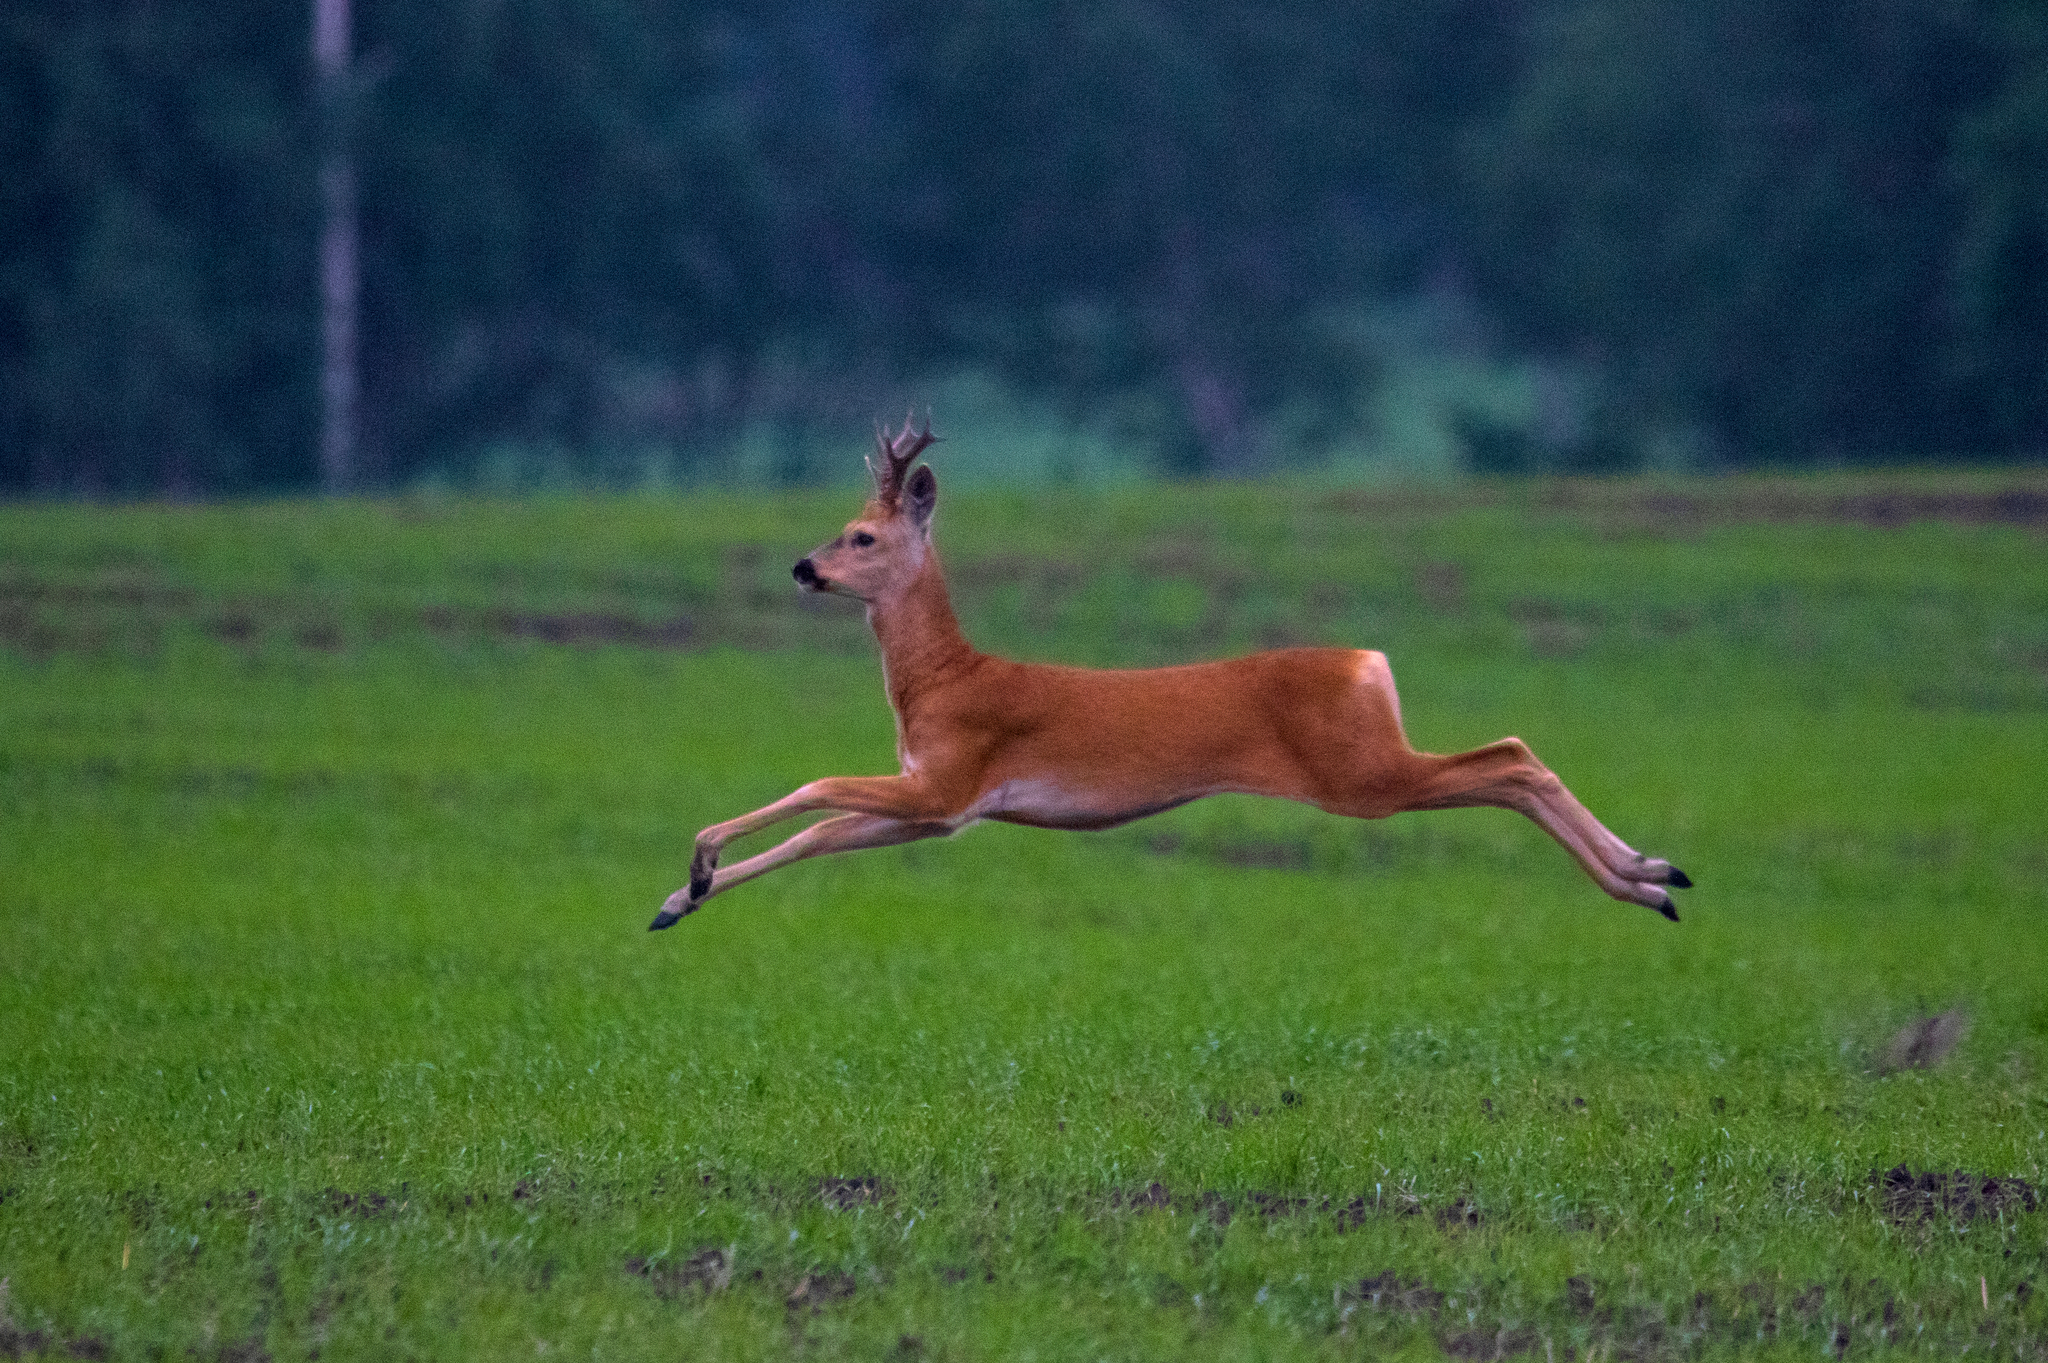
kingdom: Animalia
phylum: Chordata
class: Mammalia
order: Artiodactyla
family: Cervidae
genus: Capreolus
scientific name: Capreolus pygargus
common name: Siberian roe
